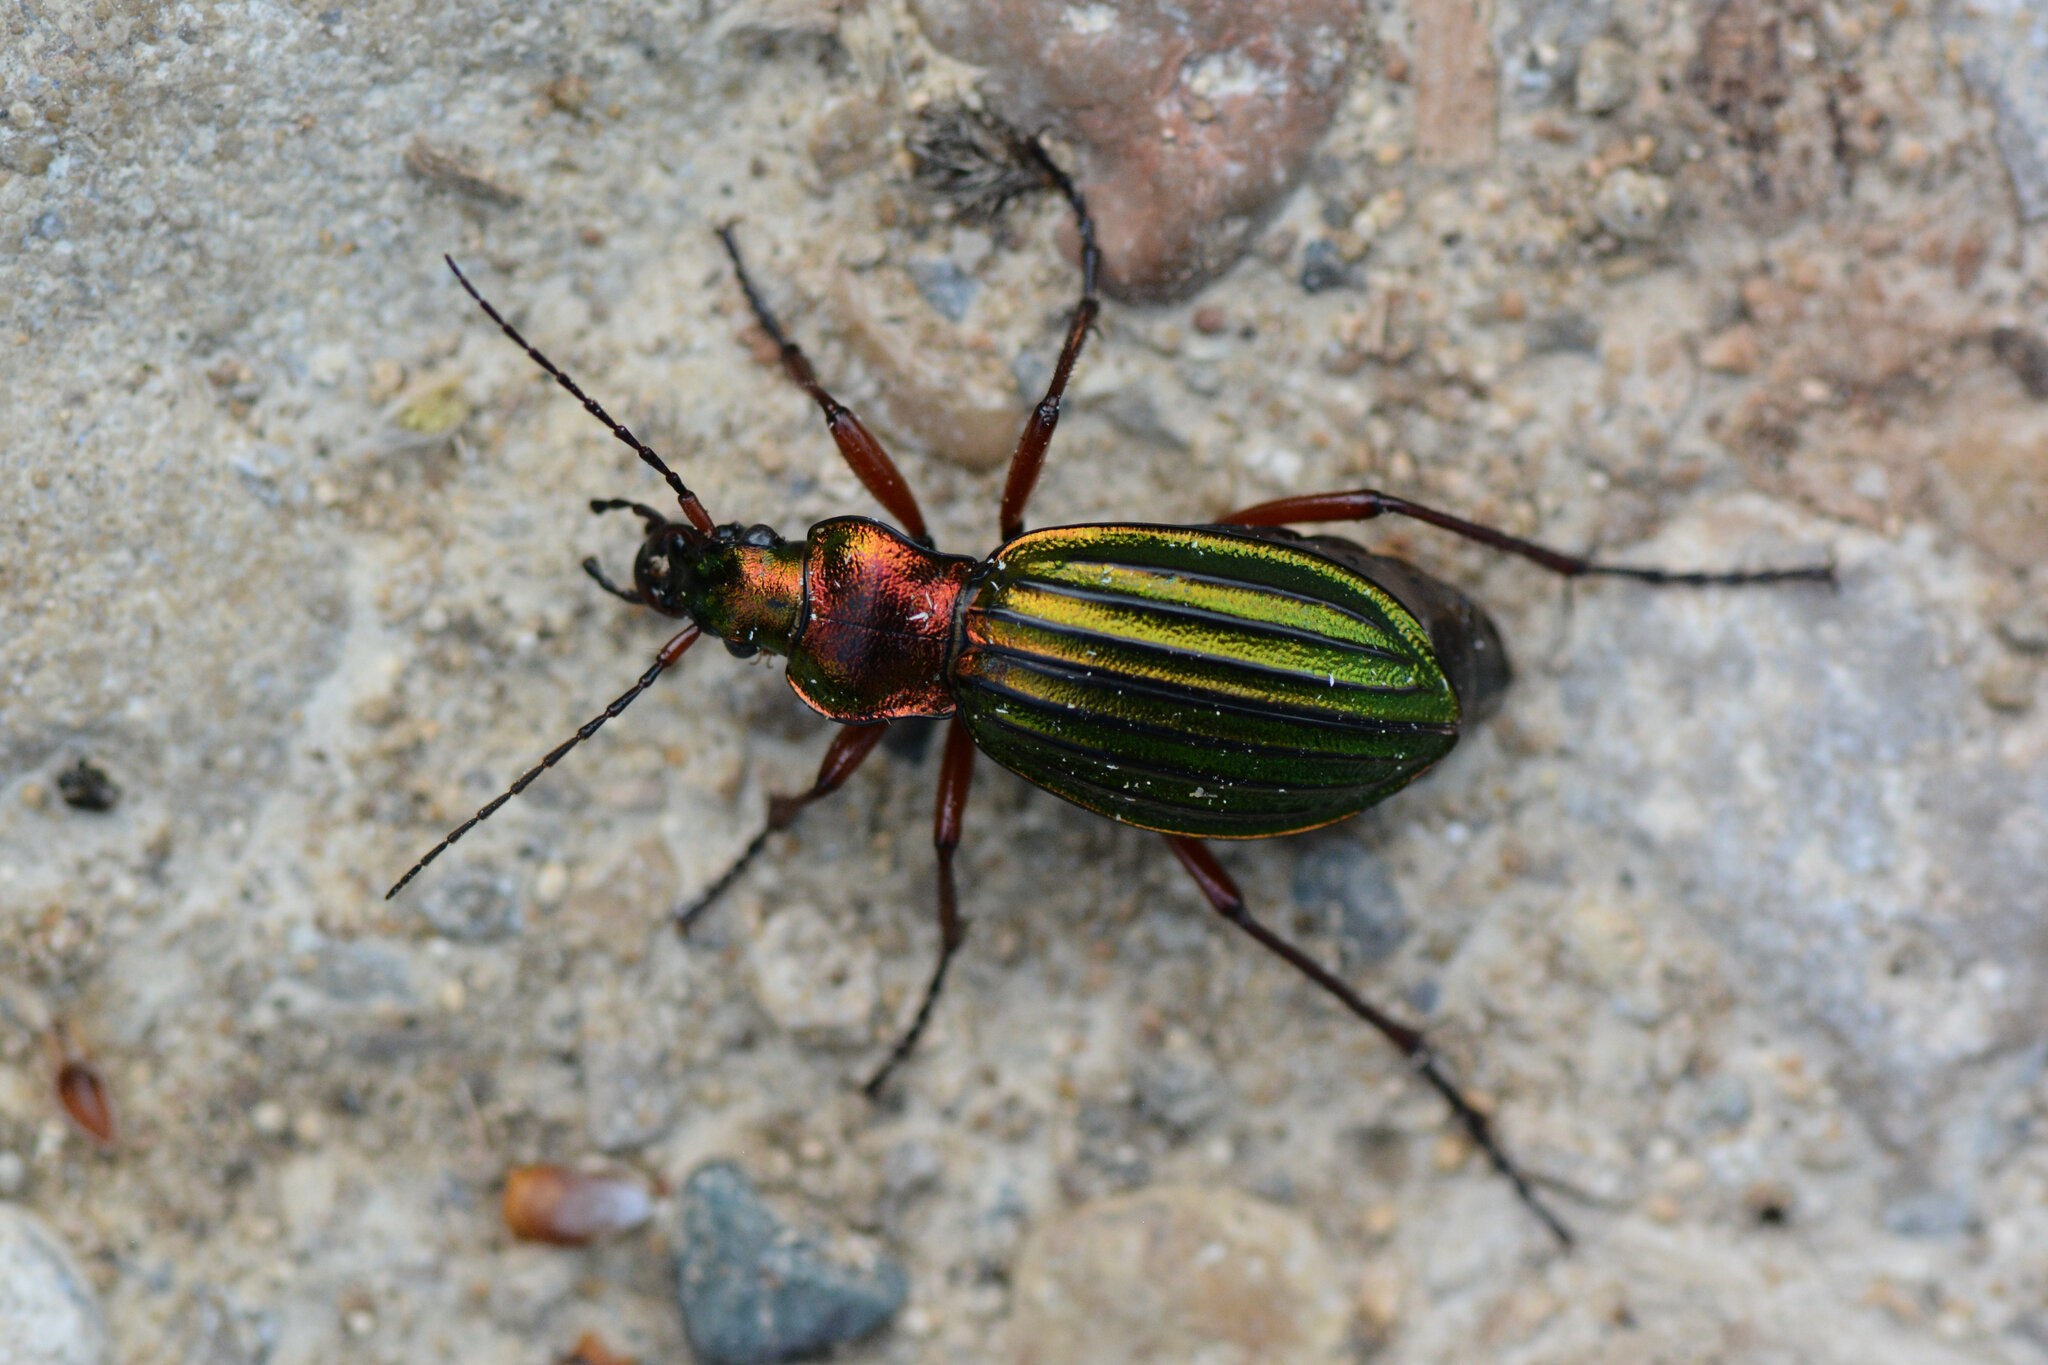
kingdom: Animalia
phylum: Arthropoda
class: Insecta
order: Coleoptera
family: Carabidae
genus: Carabus
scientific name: Carabus auronitens
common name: Carabus auronitens
